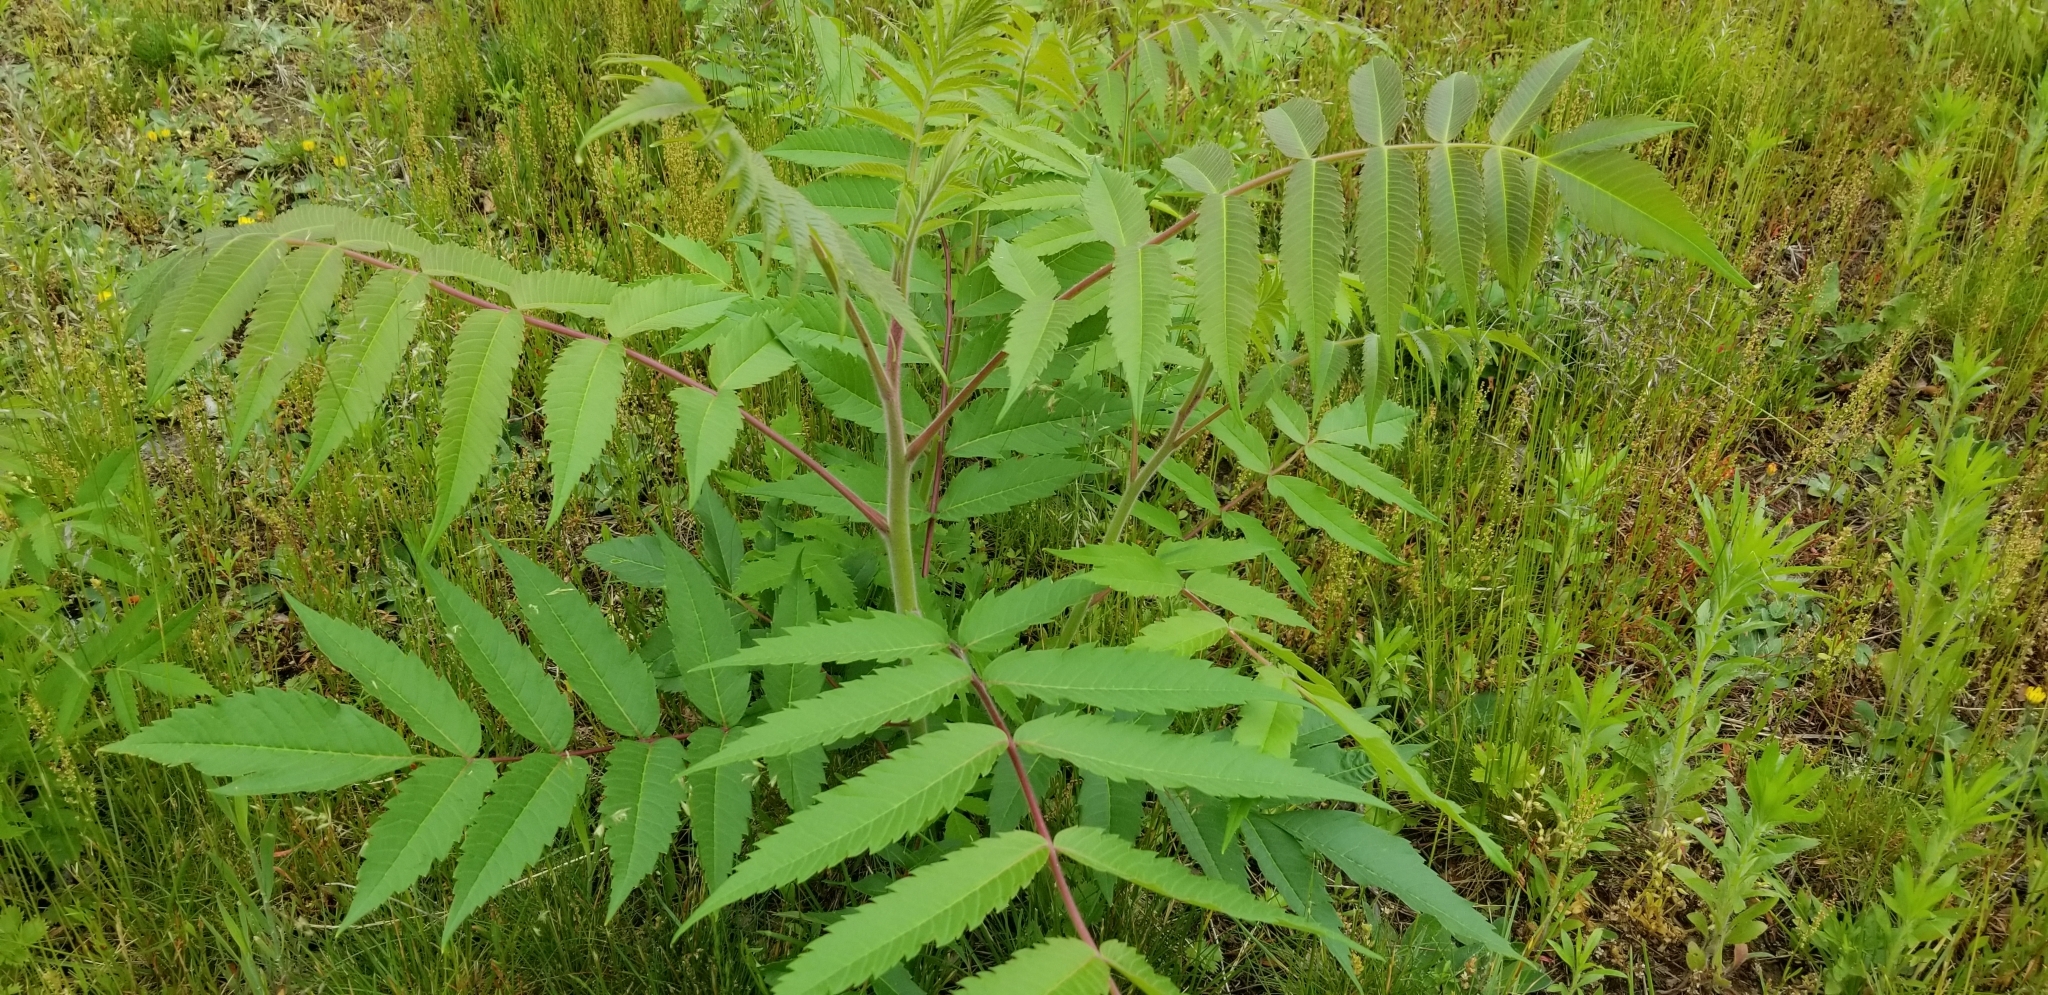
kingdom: Plantae
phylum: Tracheophyta
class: Magnoliopsida
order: Sapindales
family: Anacardiaceae
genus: Rhus
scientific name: Rhus typhina
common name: Staghorn sumac
